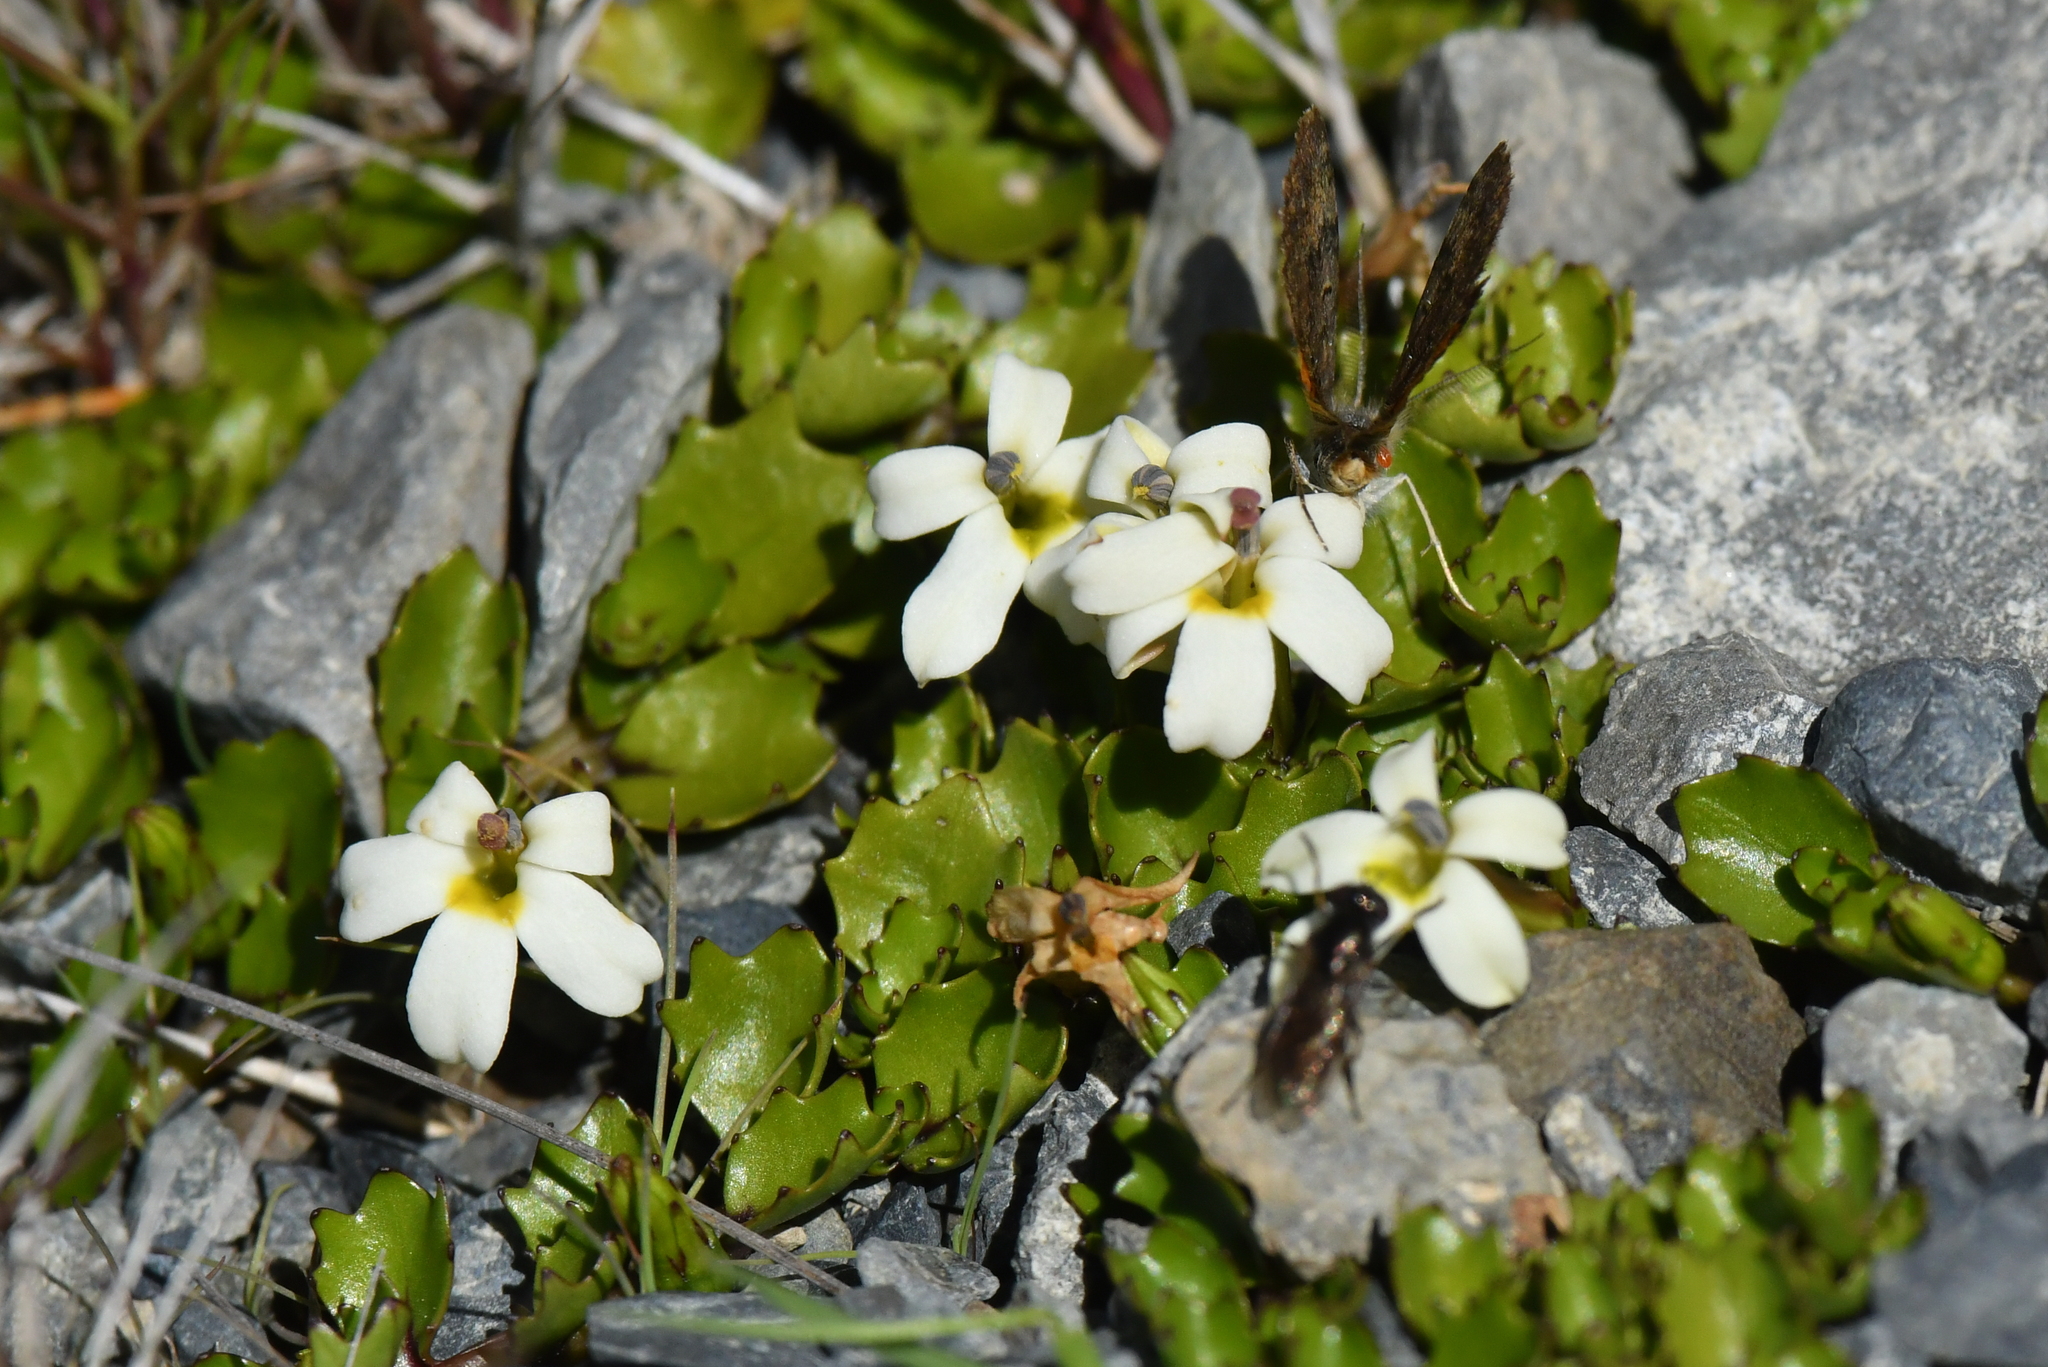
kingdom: Plantae
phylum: Tracheophyta
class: Magnoliopsida
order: Asterales
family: Campanulaceae
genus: Lobelia
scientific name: Lobelia macrodon
